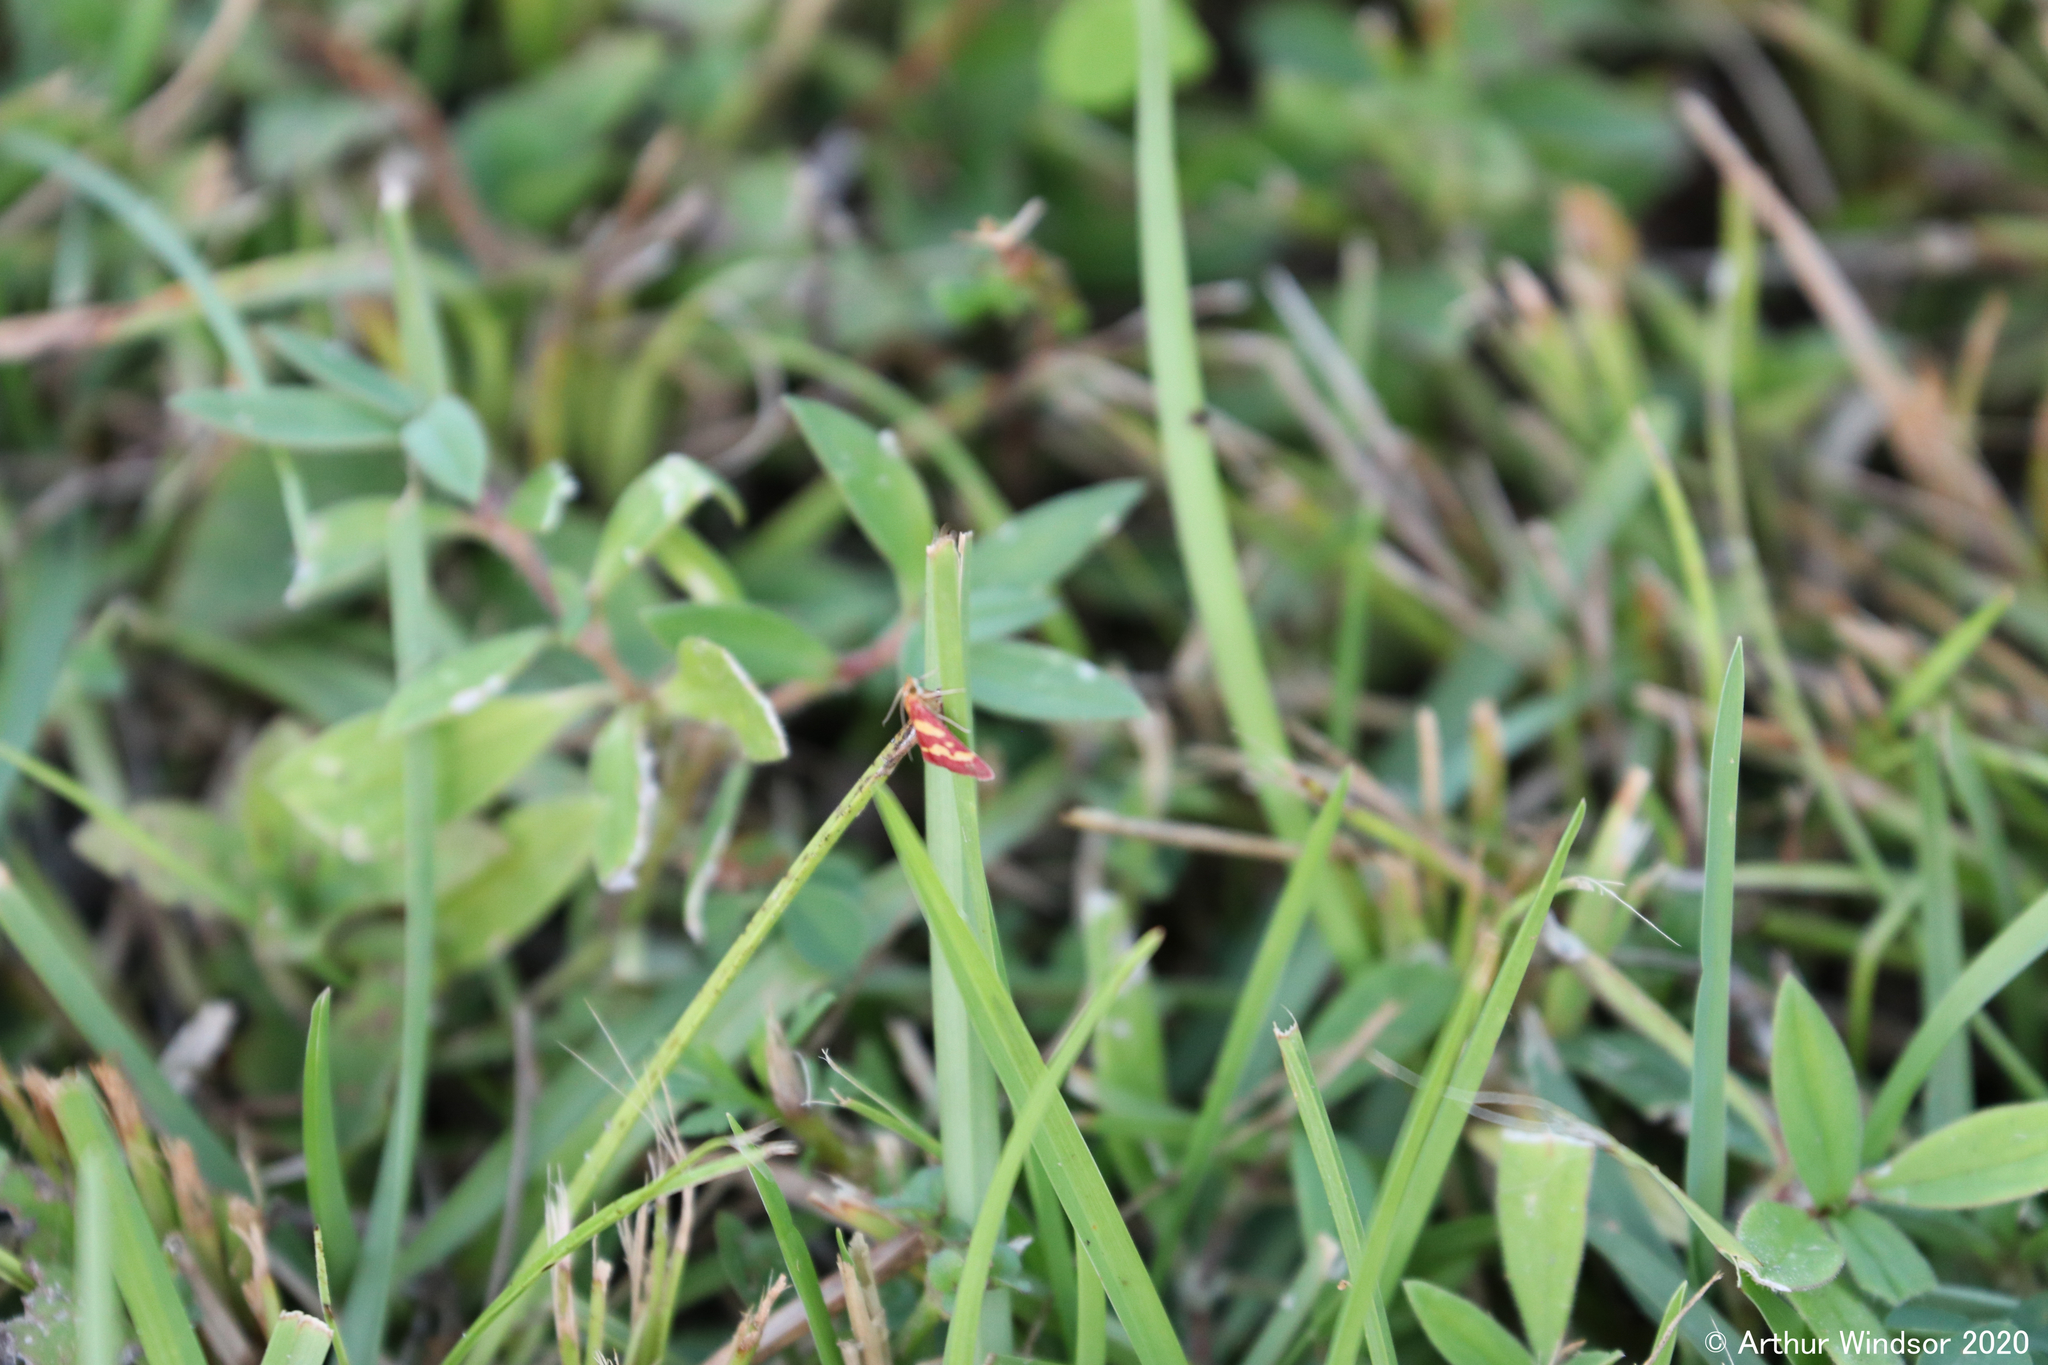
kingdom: Animalia
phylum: Arthropoda
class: Insecta
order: Lepidoptera
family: Crambidae
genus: Pyrausta
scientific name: Pyrausta tyralis
